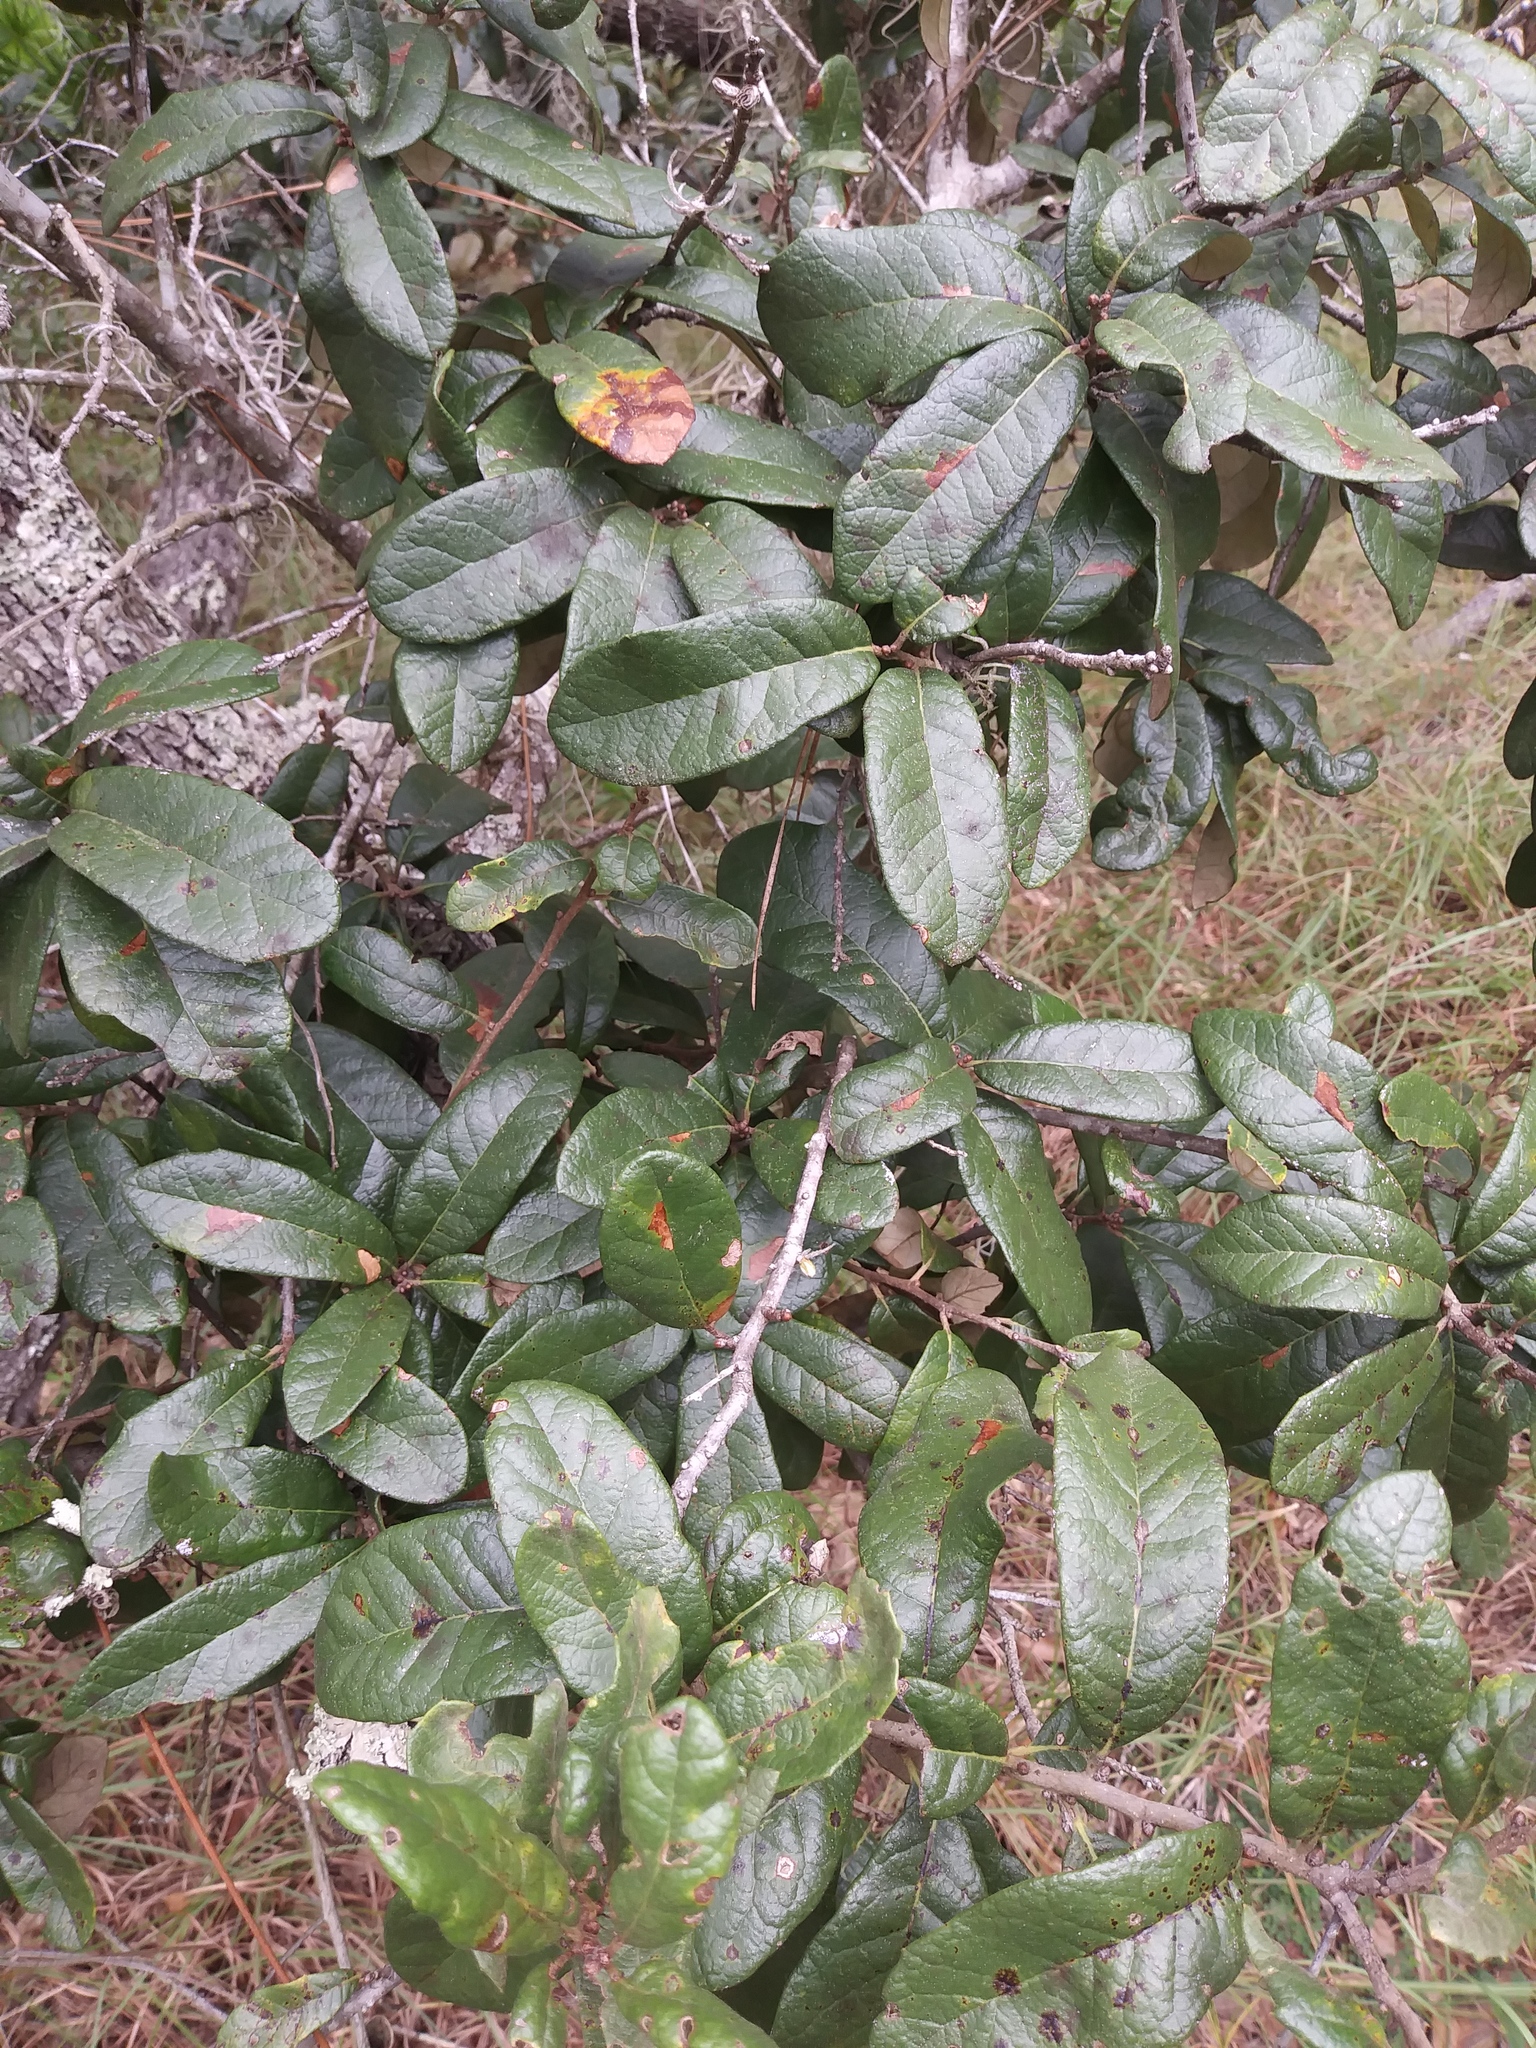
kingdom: Plantae
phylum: Tracheophyta
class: Magnoliopsida
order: Fagales
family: Fagaceae
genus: Quercus
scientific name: Quercus virginiana
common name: Southern live oak
